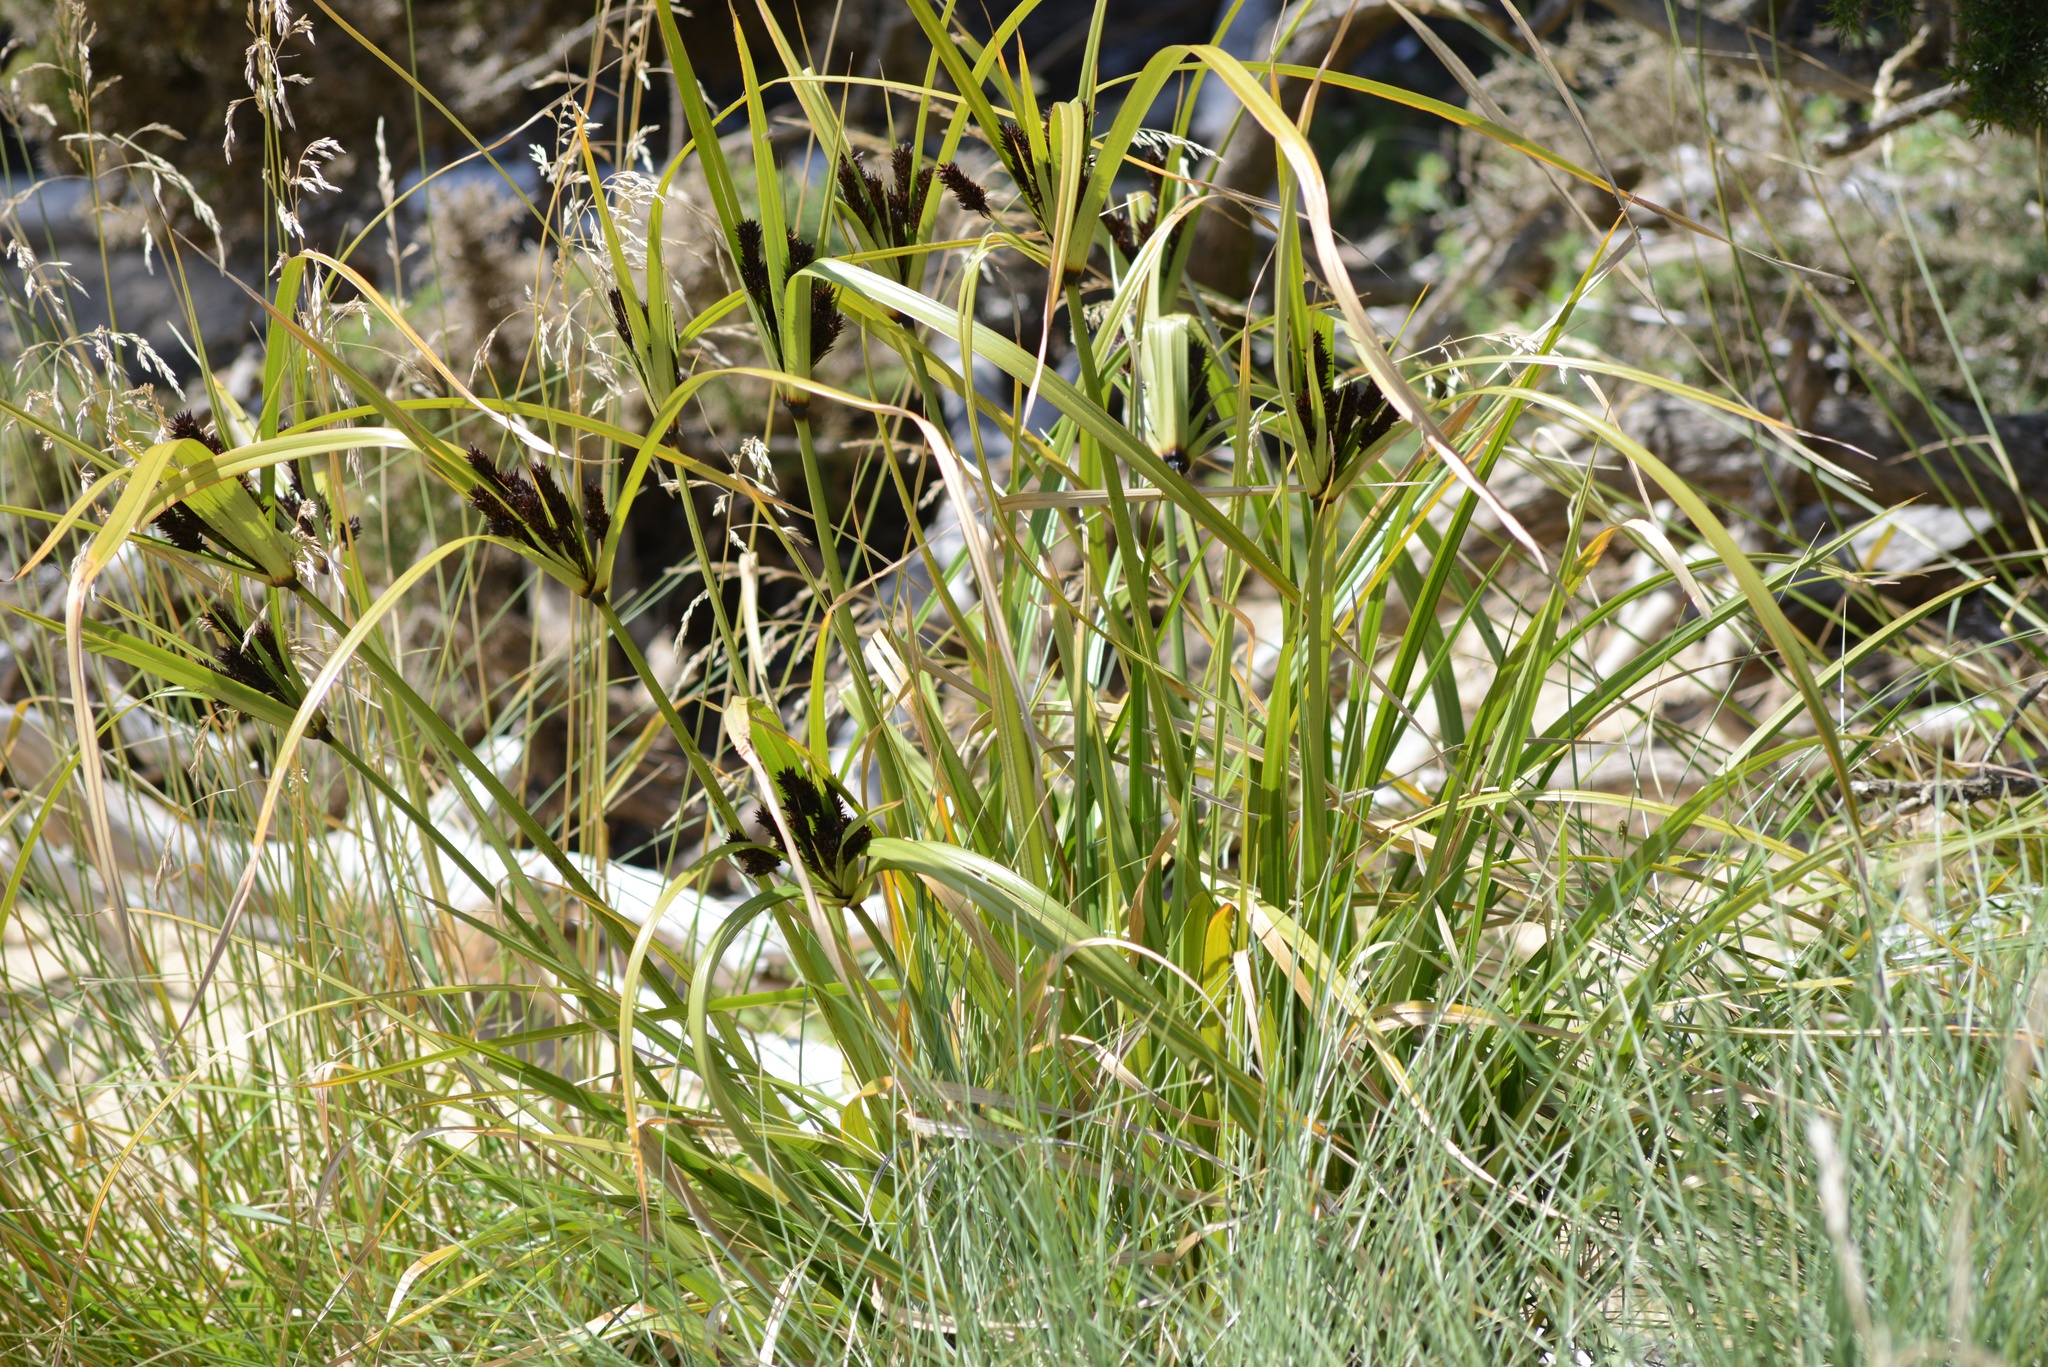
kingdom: Plantae
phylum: Tracheophyta
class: Liliopsida
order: Poales
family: Cyperaceae
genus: Cyperus
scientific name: Cyperus ustulatus
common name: Giant umbrella-sedge
